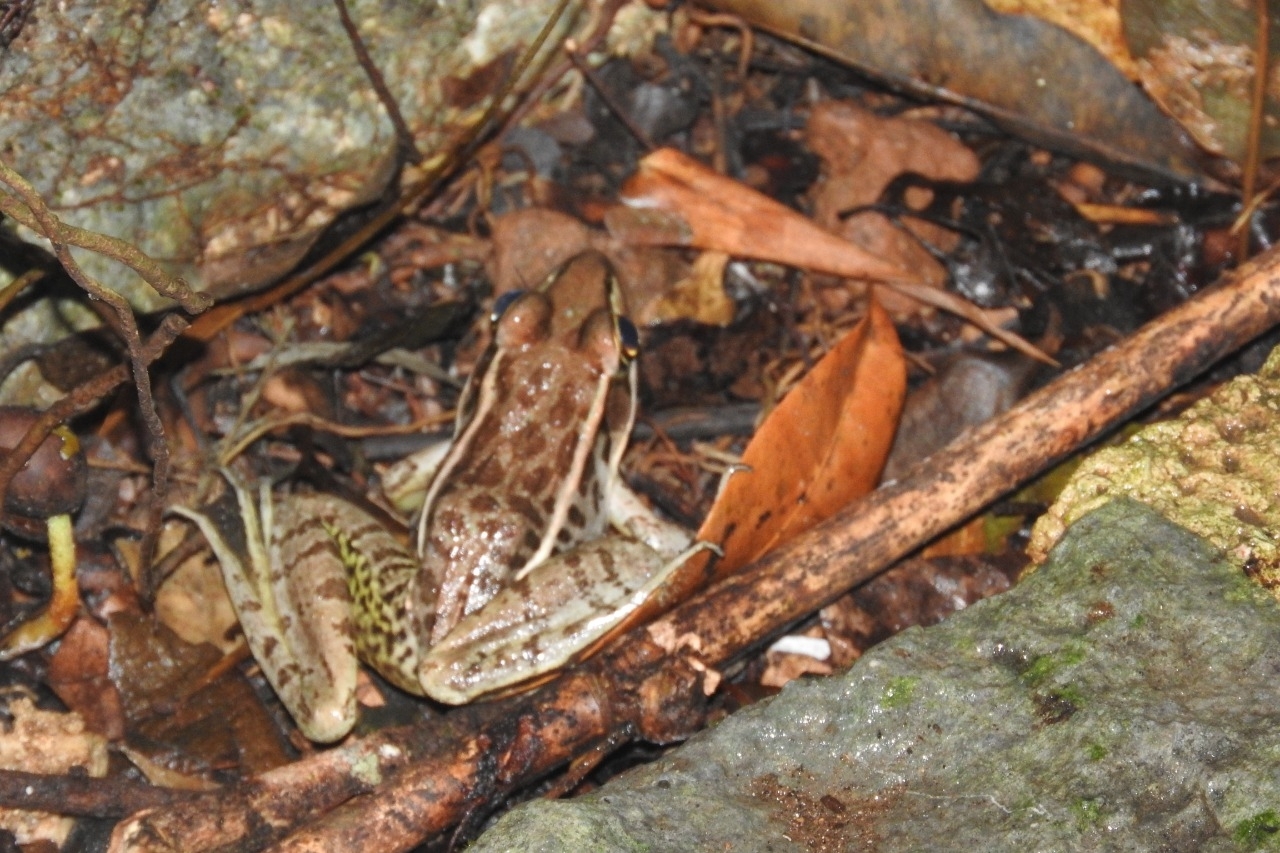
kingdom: Animalia
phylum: Chordata
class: Amphibia
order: Anura
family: Ranidae
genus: Lithobates
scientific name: Lithobates brownorum
